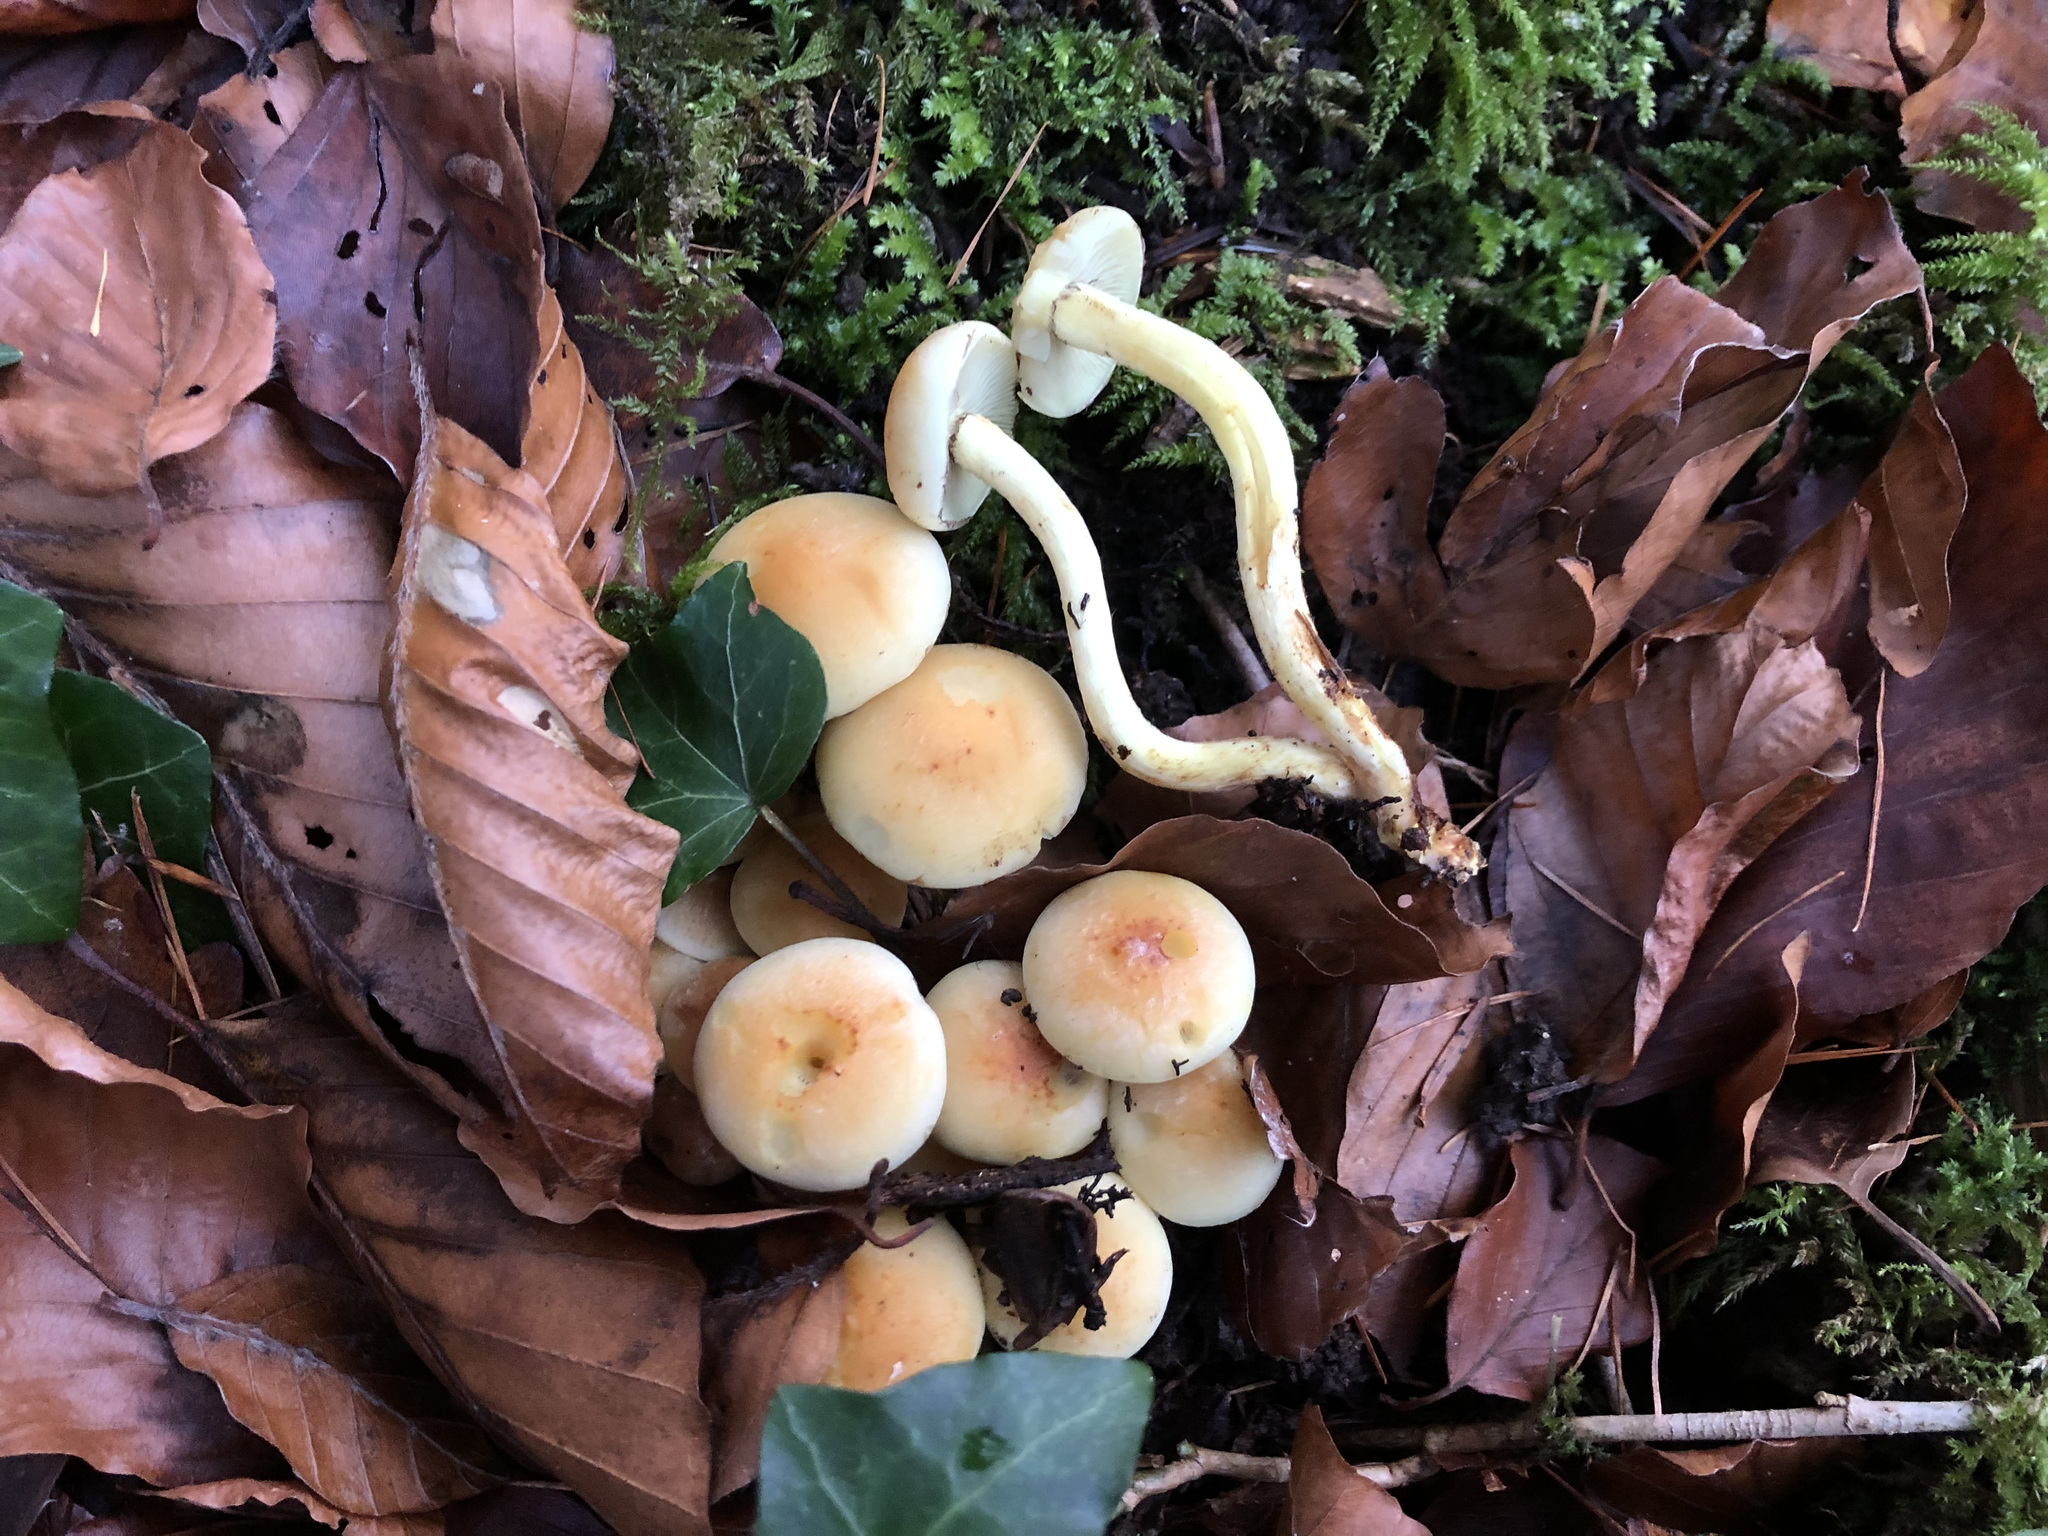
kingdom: Fungi
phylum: Basidiomycota
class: Agaricomycetes
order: Agaricales
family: Strophariaceae
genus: Hypholoma
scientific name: Hypholoma fasciculare
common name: Sulphur tuft
